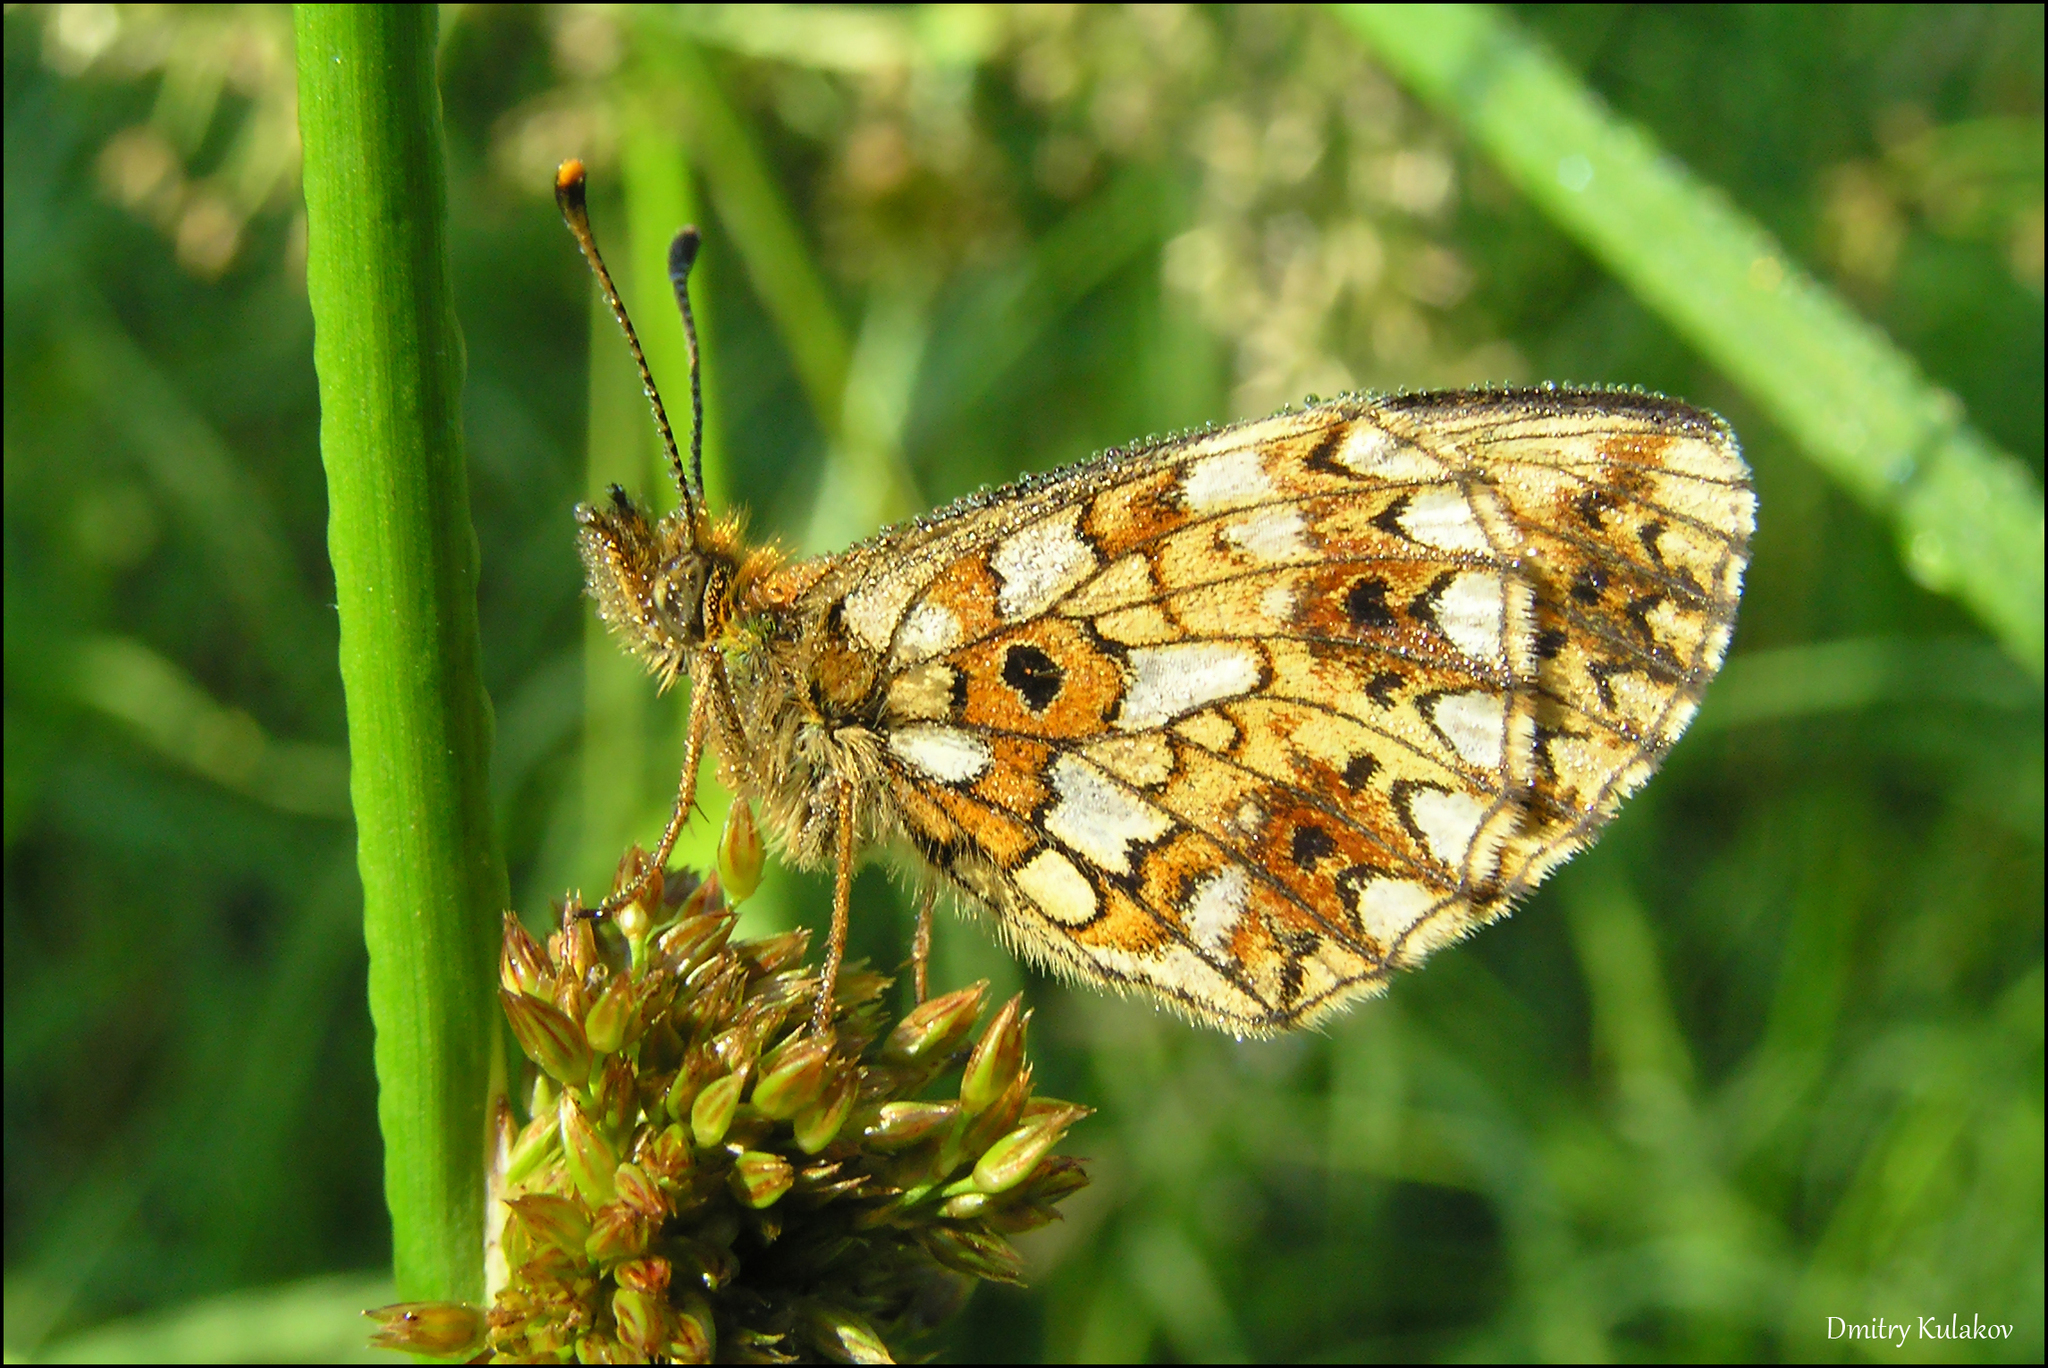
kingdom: Animalia
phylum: Arthropoda
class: Insecta
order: Lepidoptera
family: Nymphalidae
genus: Boloria
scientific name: Boloria selene
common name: Small pearl-bordered fritillary
